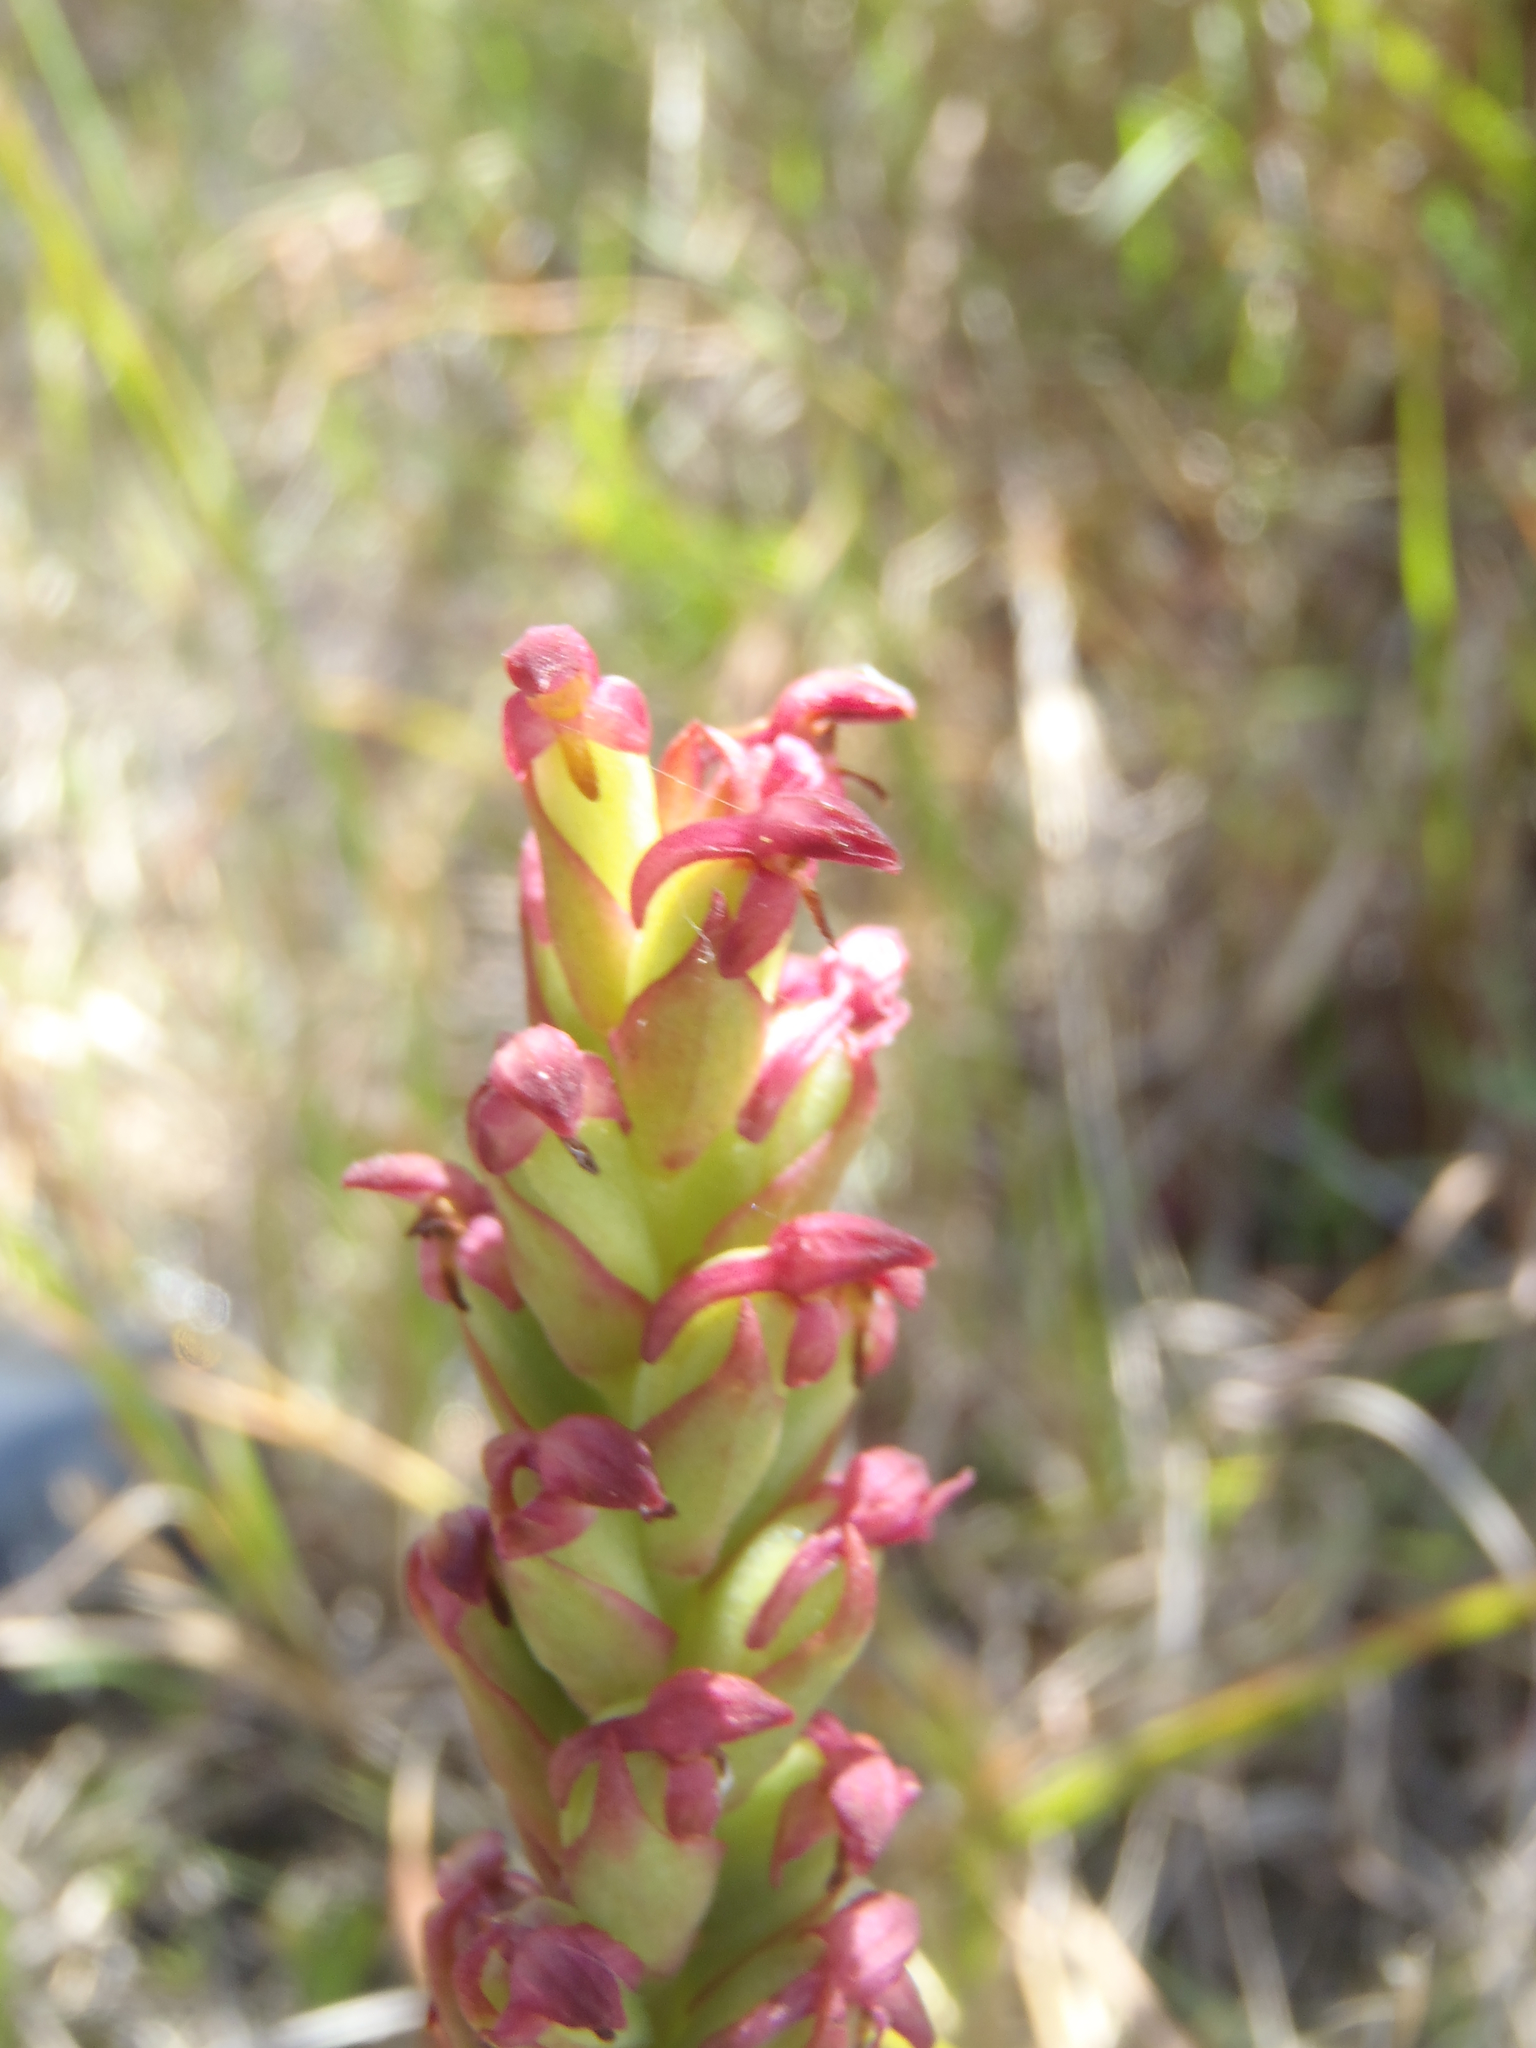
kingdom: Plantae
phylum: Tracheophyta
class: Liliopsida
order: Asparagales
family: Orchidaceae
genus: Disa
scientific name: Disa bracteata
